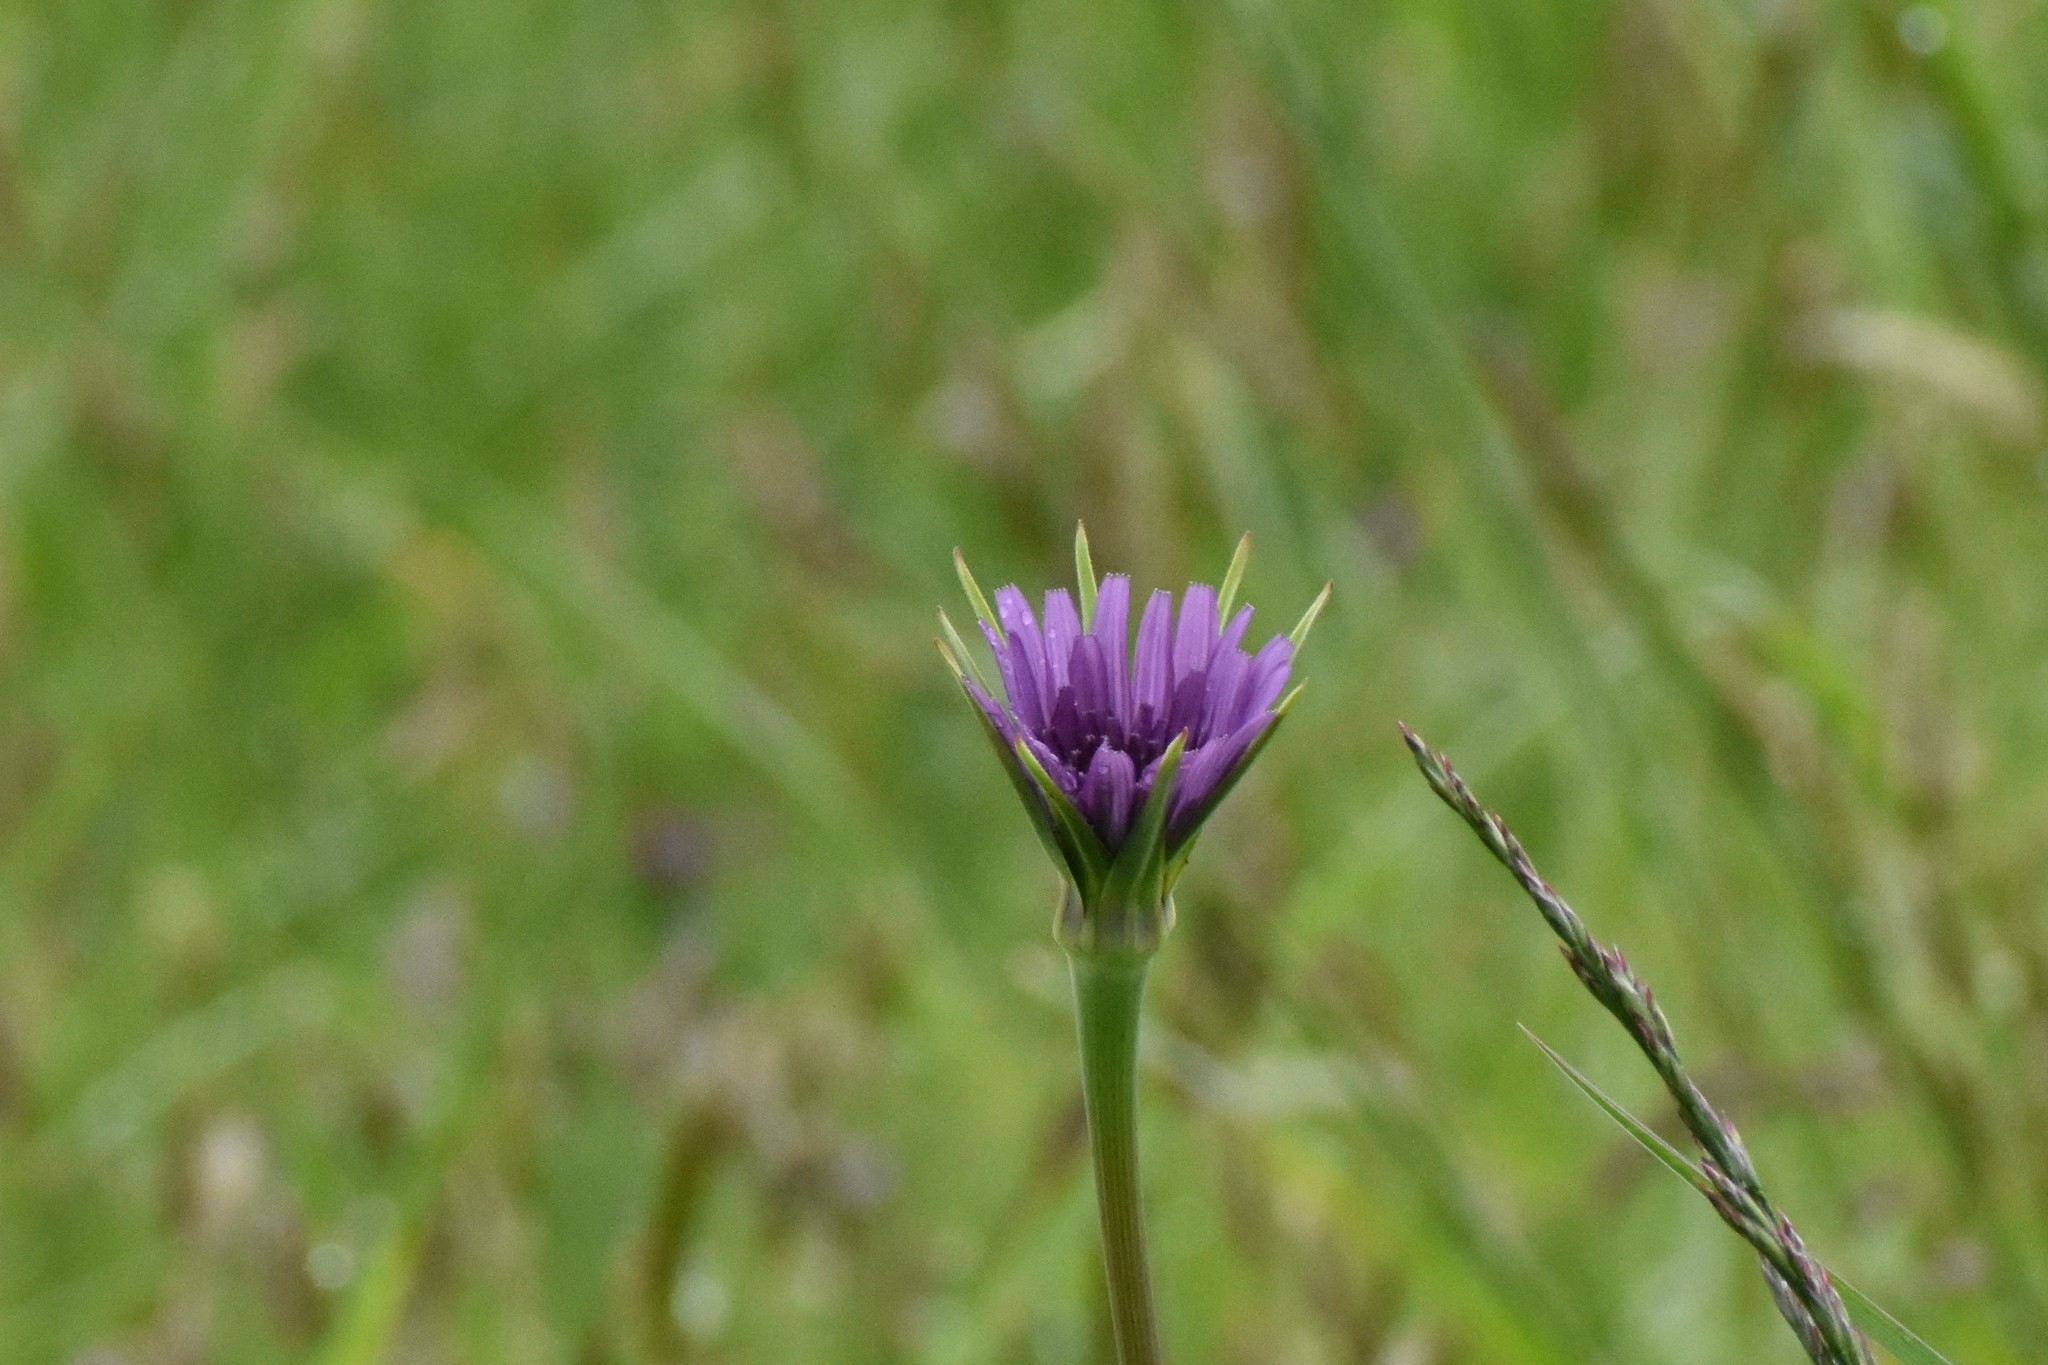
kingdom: Plantae
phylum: Tracheophyta
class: Magnoliopsida
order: Asterales
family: Asteraceae
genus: Tragopogon
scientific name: Tragopogon porrifolius
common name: Salsify
